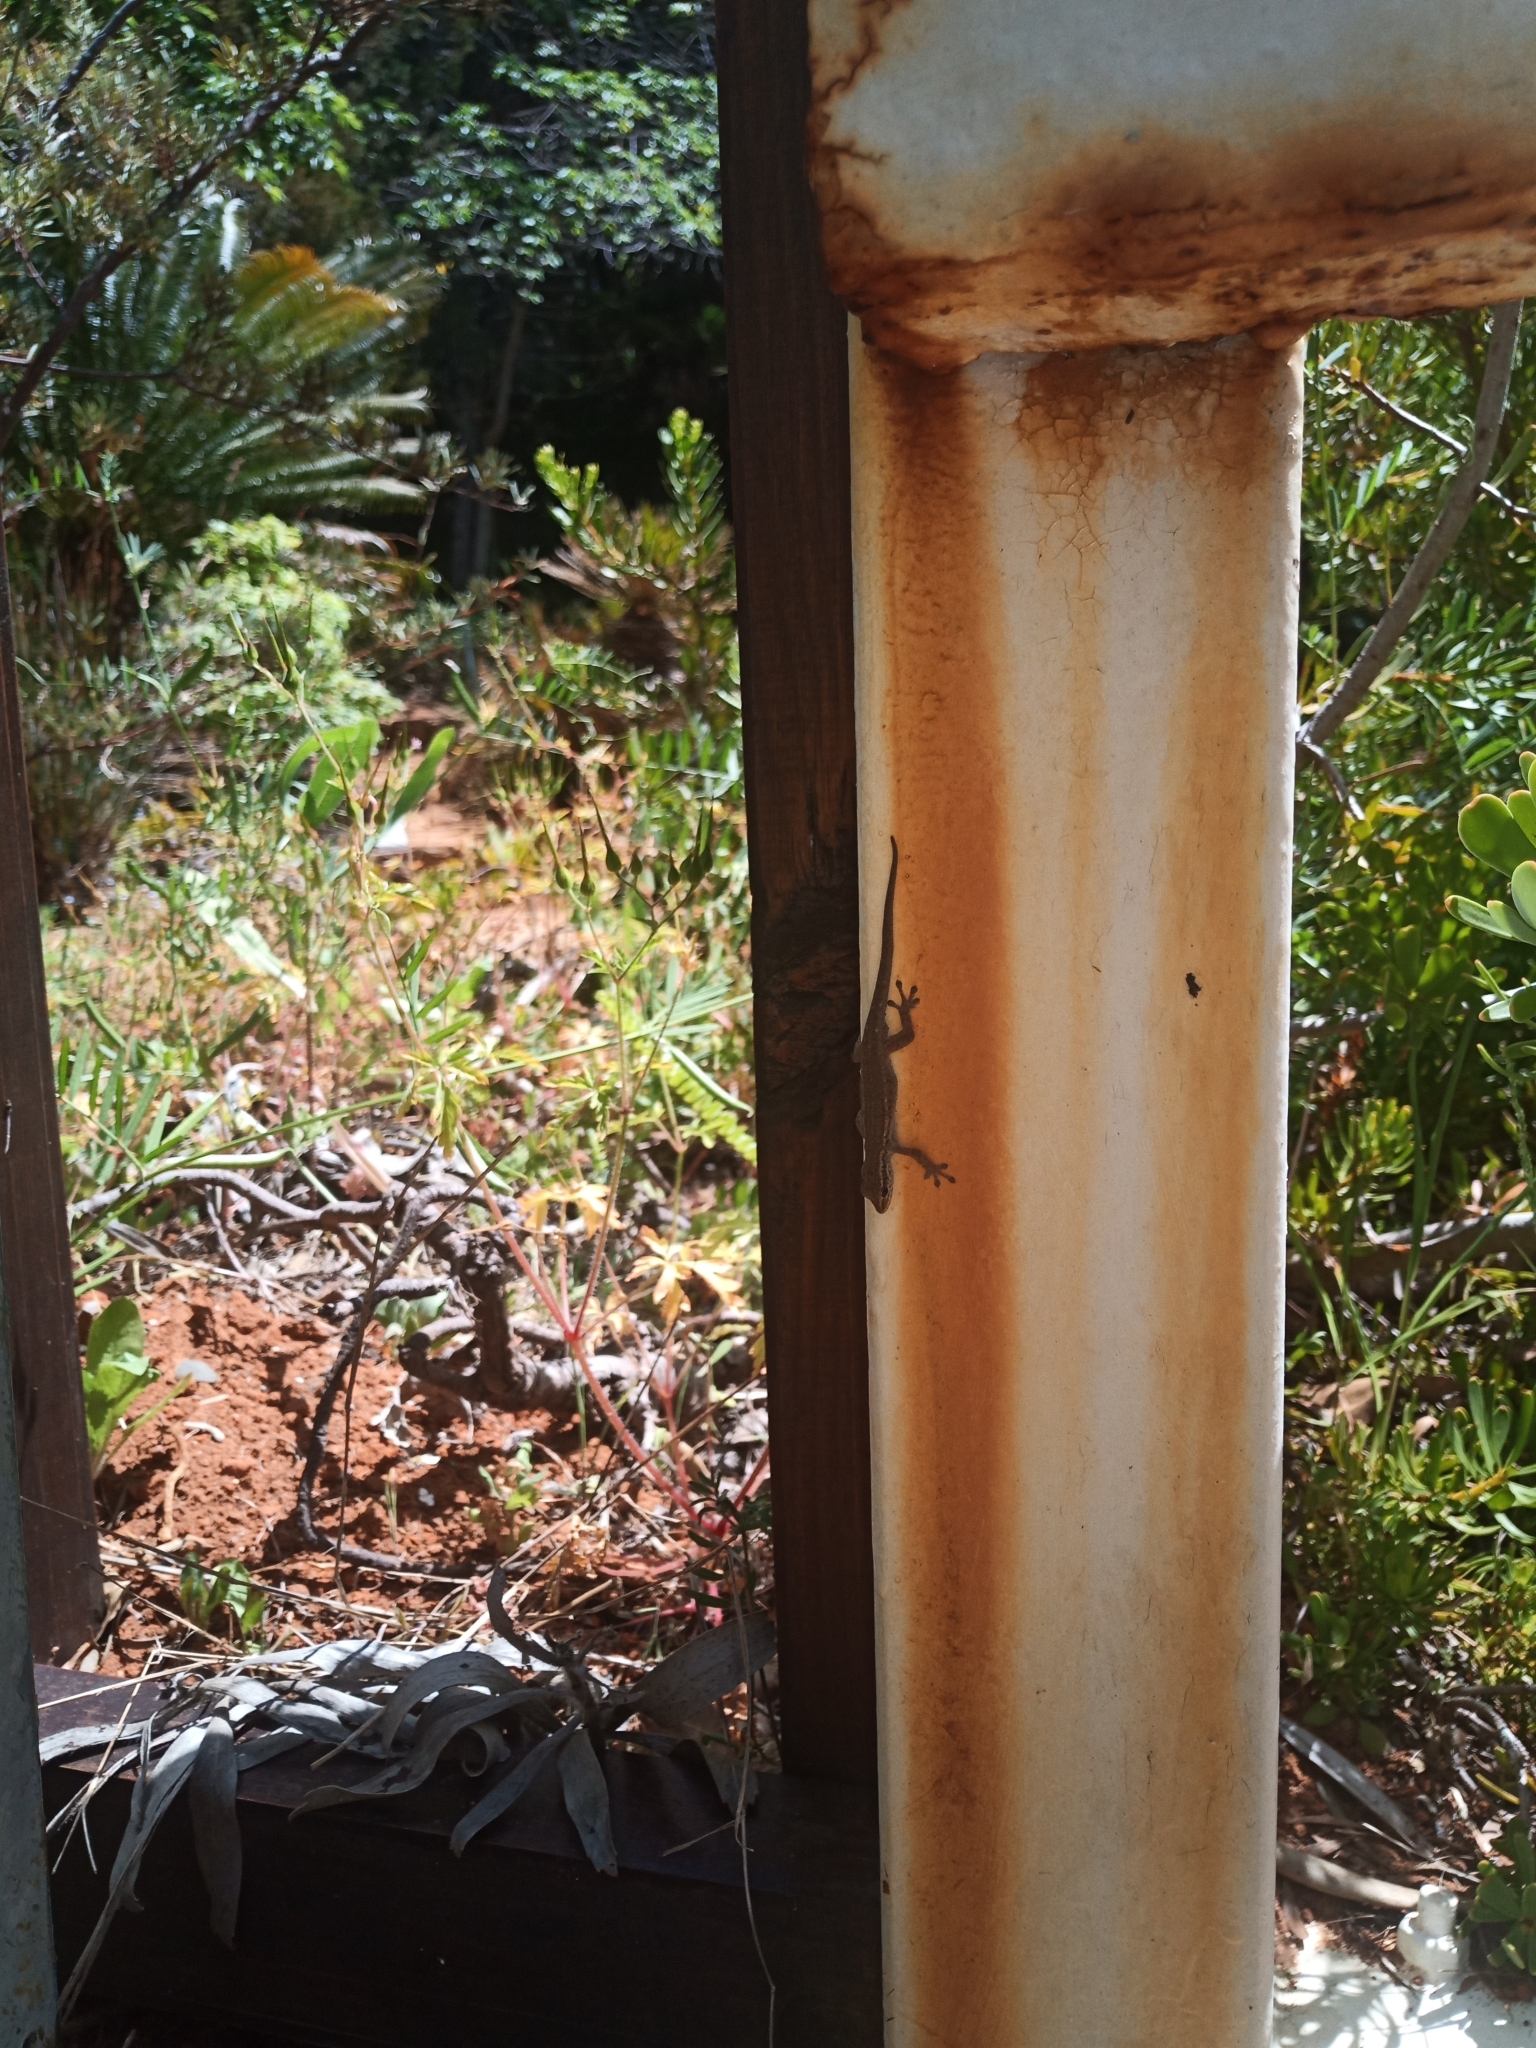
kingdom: Animalia
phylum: Chordata
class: Squamata
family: Gekkonidae
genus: Lygodactylus
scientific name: Lygodactylus capensis
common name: Cape dwarf gecko
